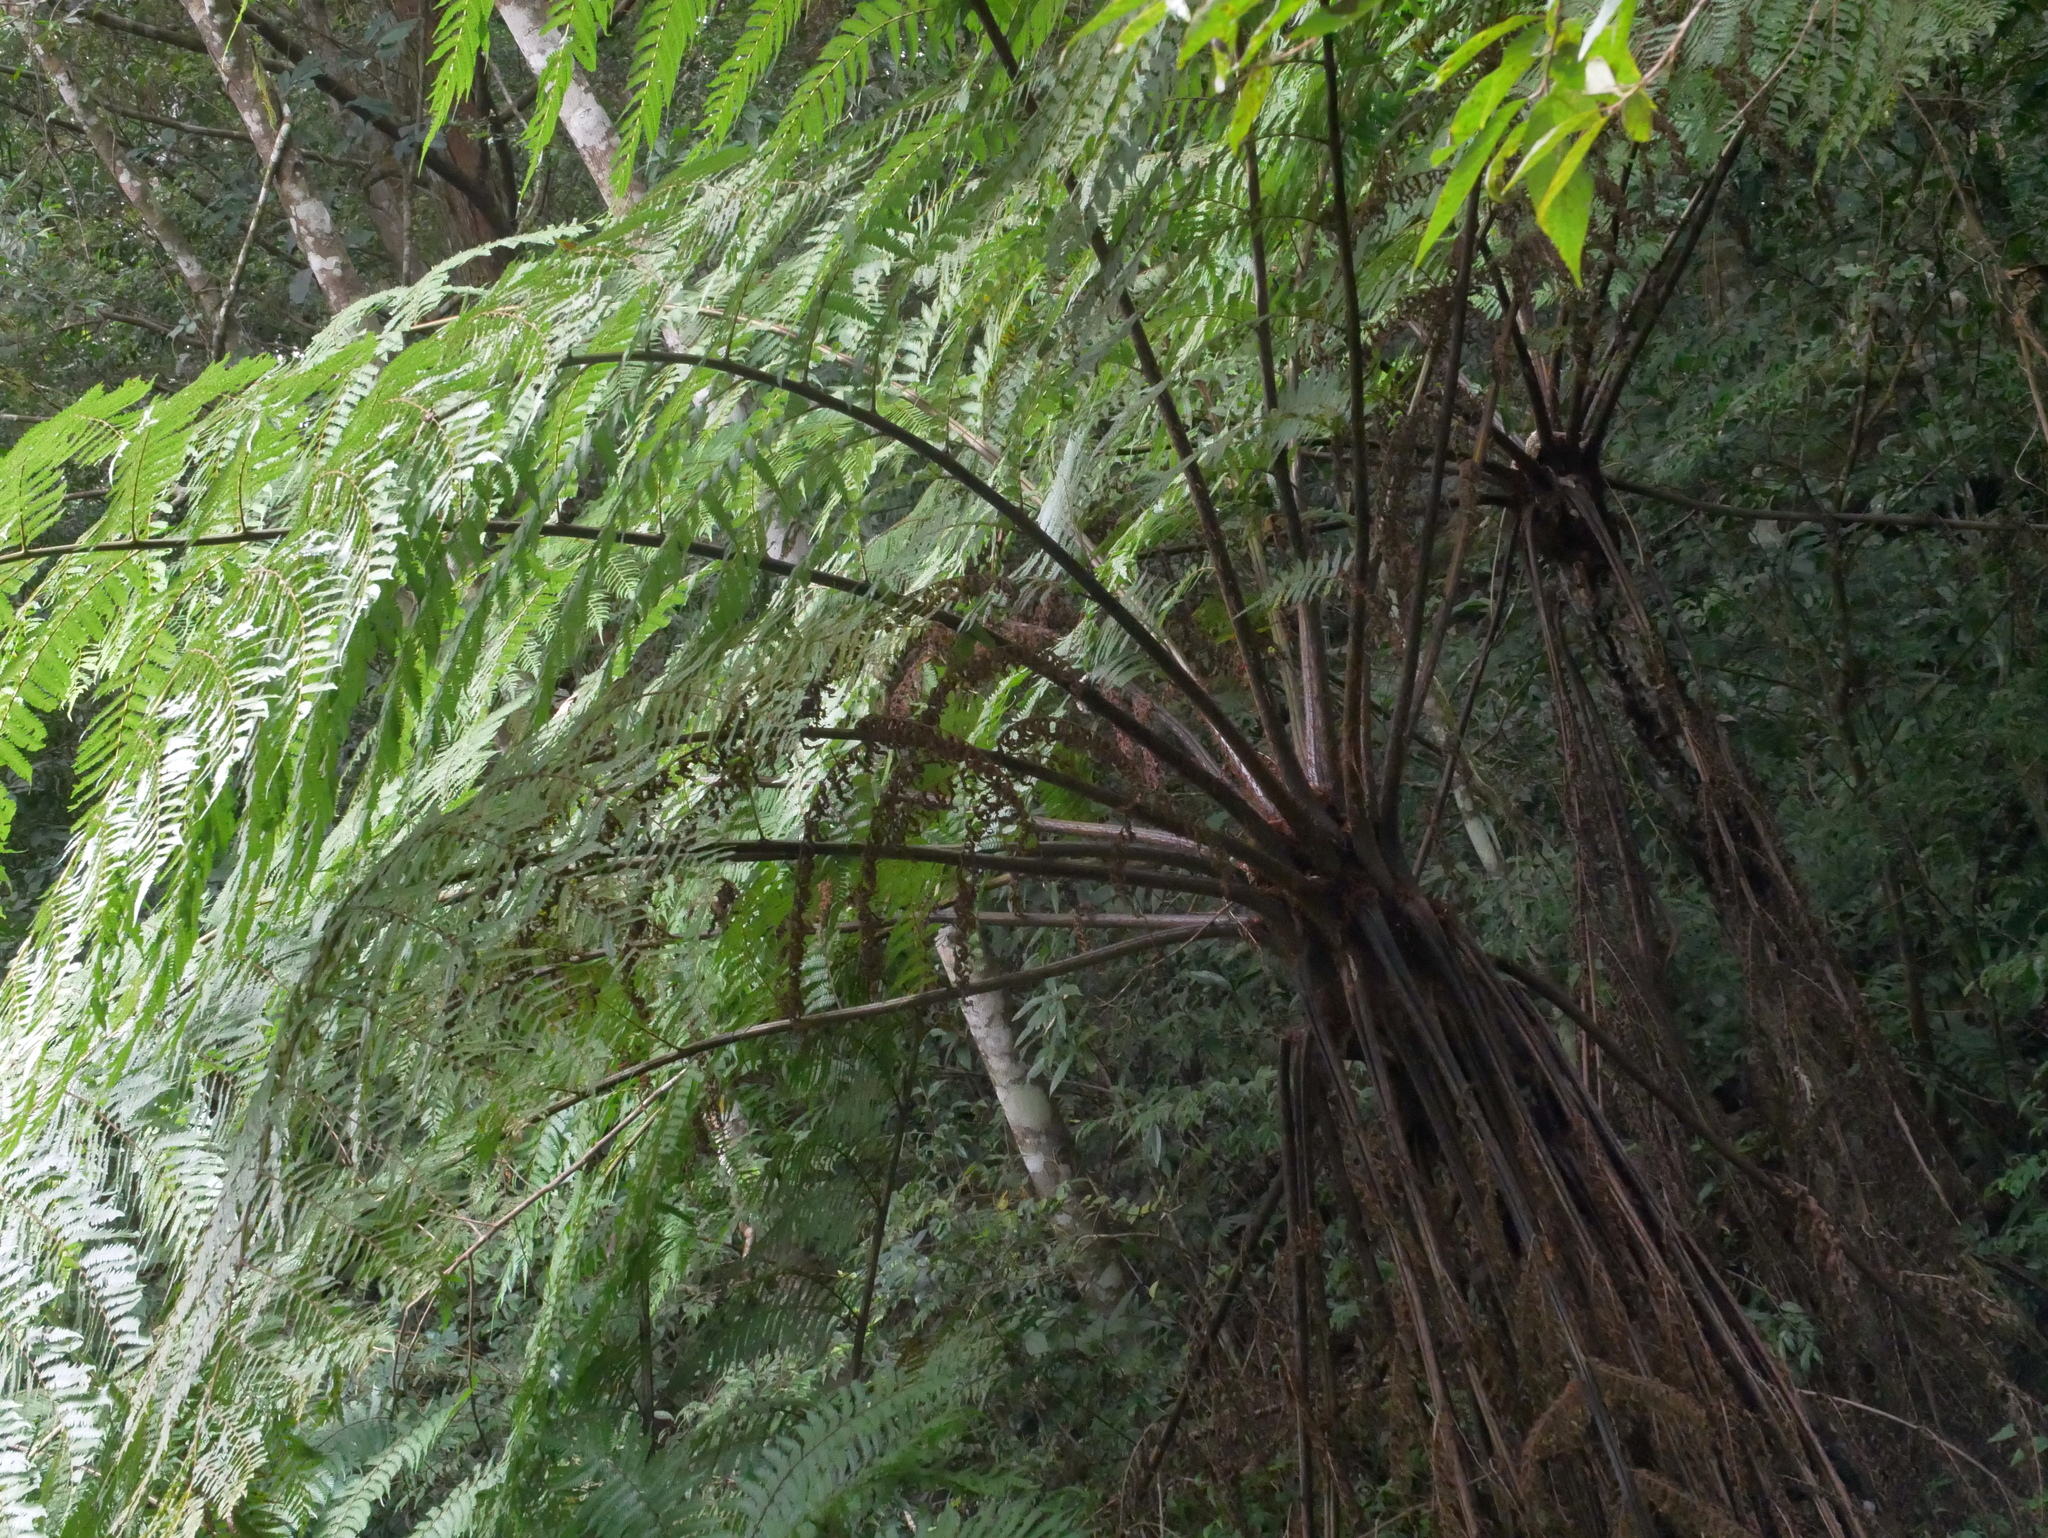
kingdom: Plantae
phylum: Tracheophyta
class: Polypodiopsida
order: Cyatheales
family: Cyatheaceae
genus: Alsophila
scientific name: Alsophila spinulosa
